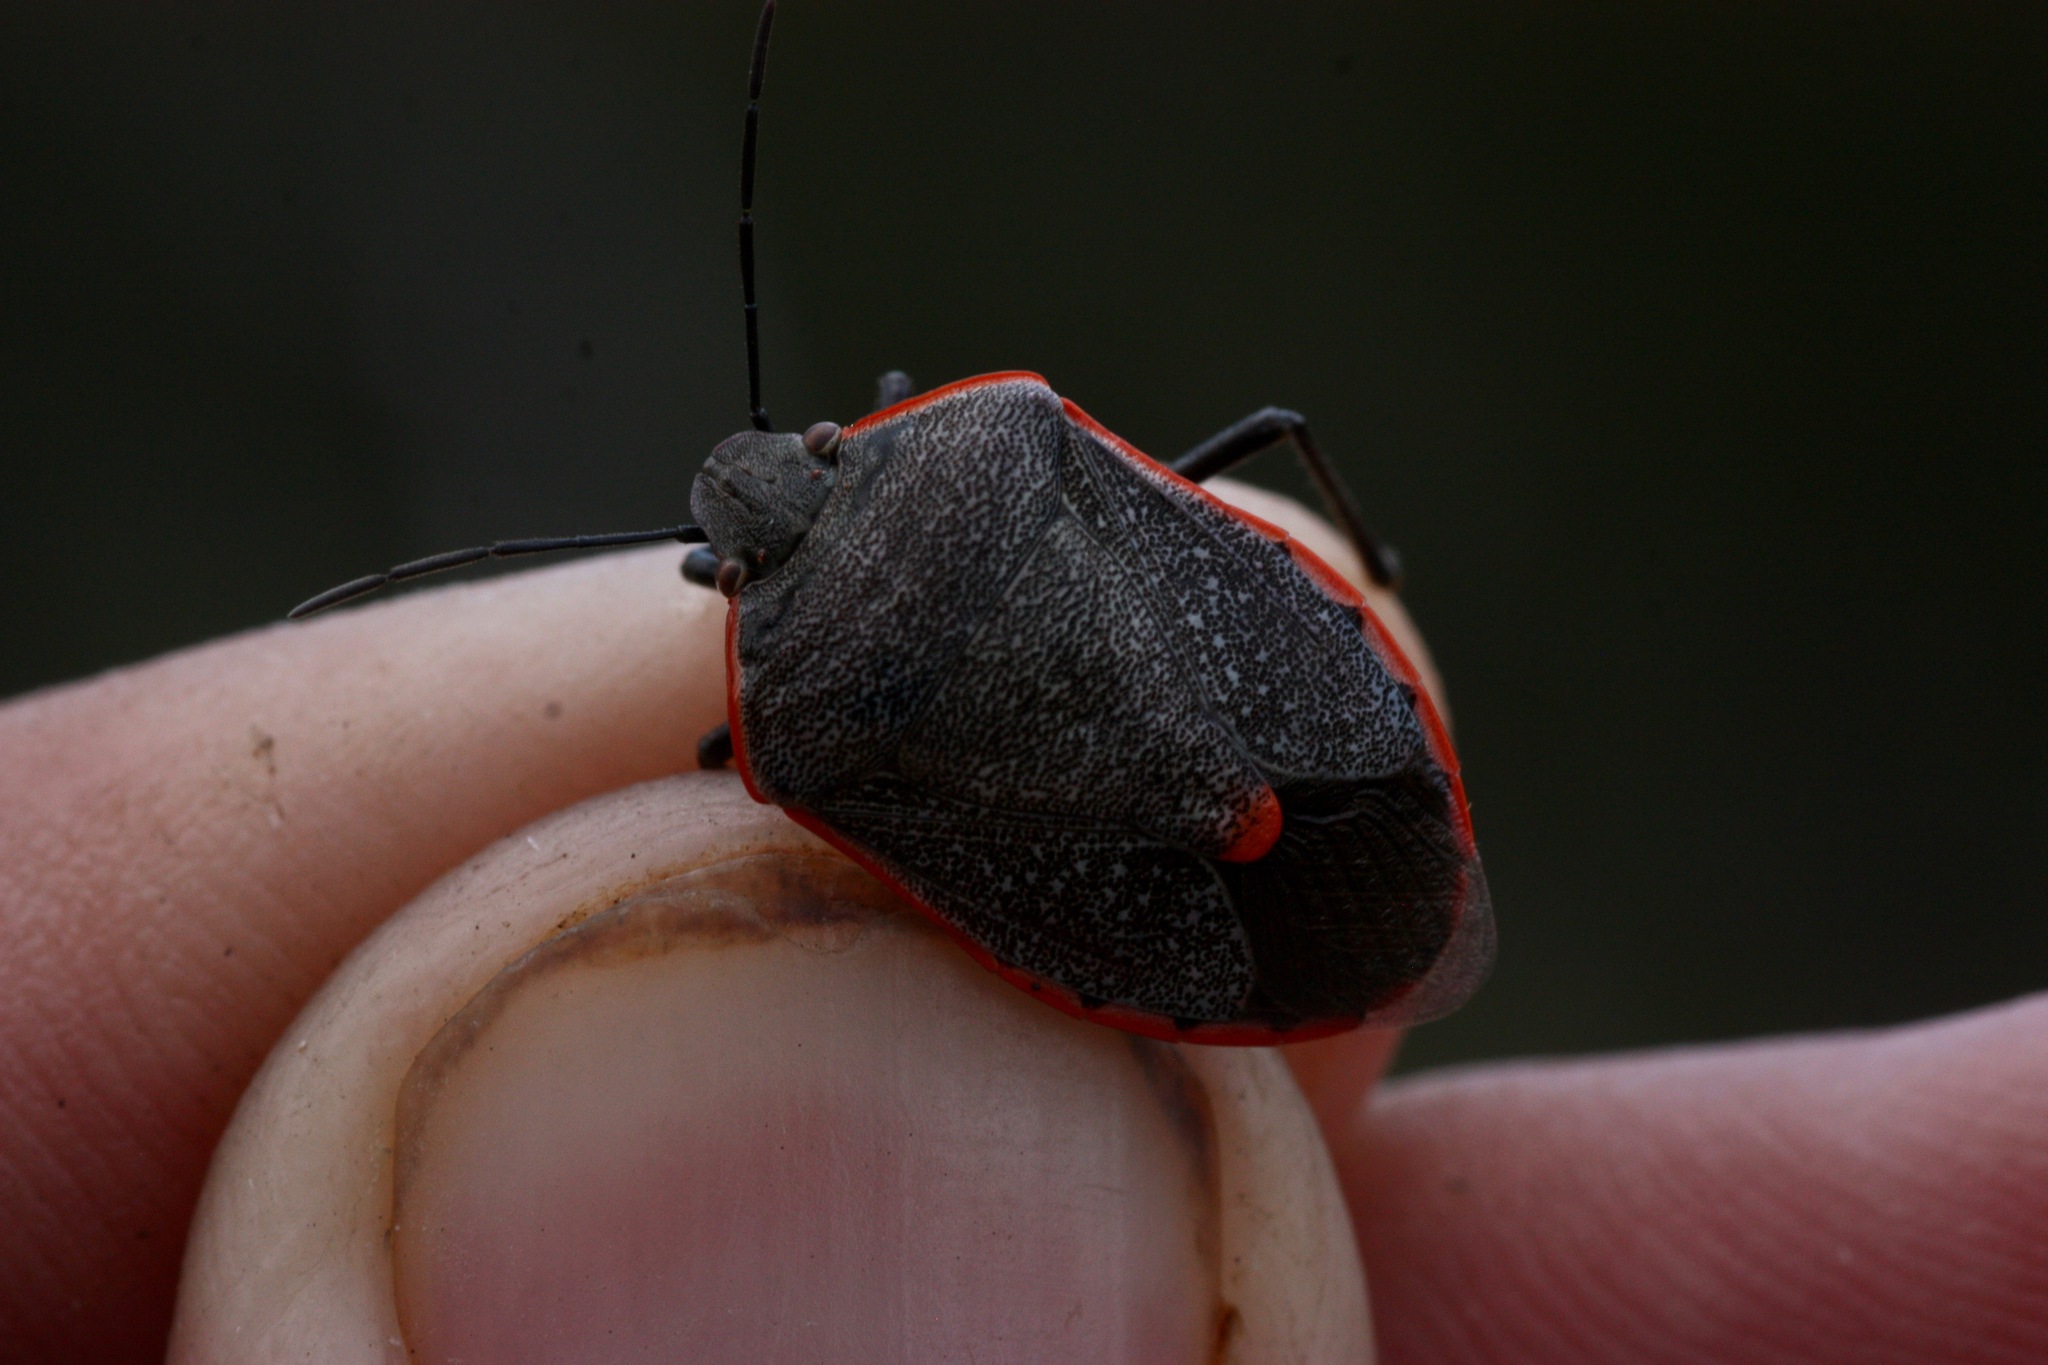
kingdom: Animalia
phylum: Arthropoda
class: Insecta
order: Hemiptera
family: Pentatomidae
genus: Chlorochroa
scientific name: Chlorochroa ligata
